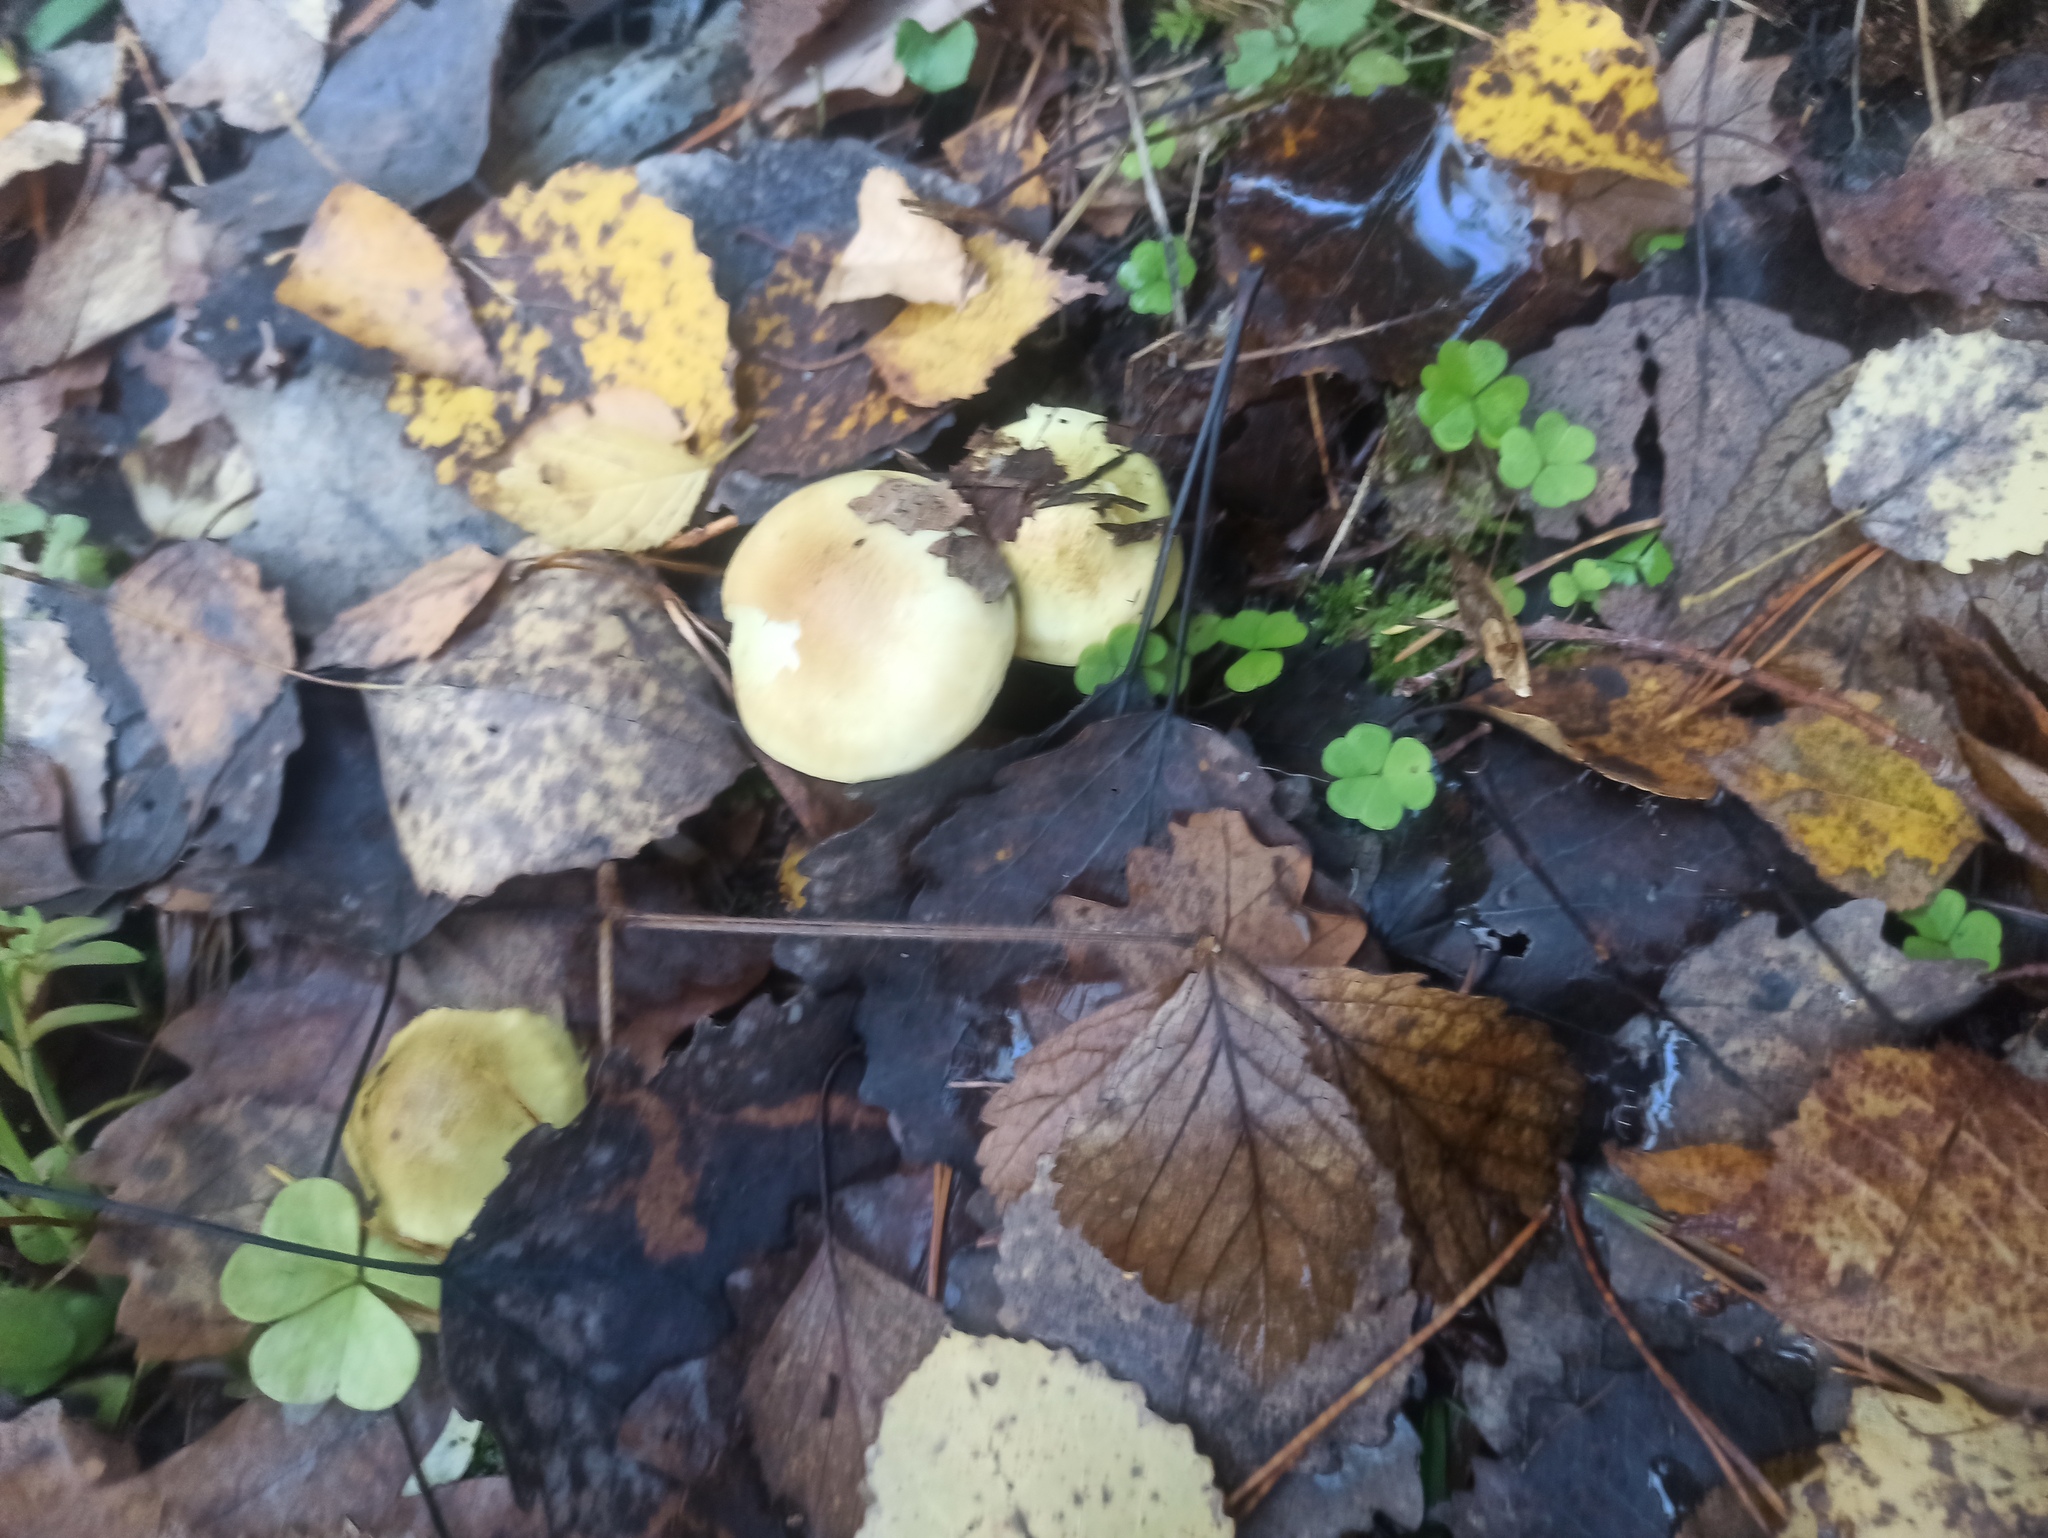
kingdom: Fungi
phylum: Basidiomycota
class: Agaricomycetes
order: Agaricales
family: Tricholomataceae
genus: Tricholoma
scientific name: Tricholoma sulphureum
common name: Stinky knight
